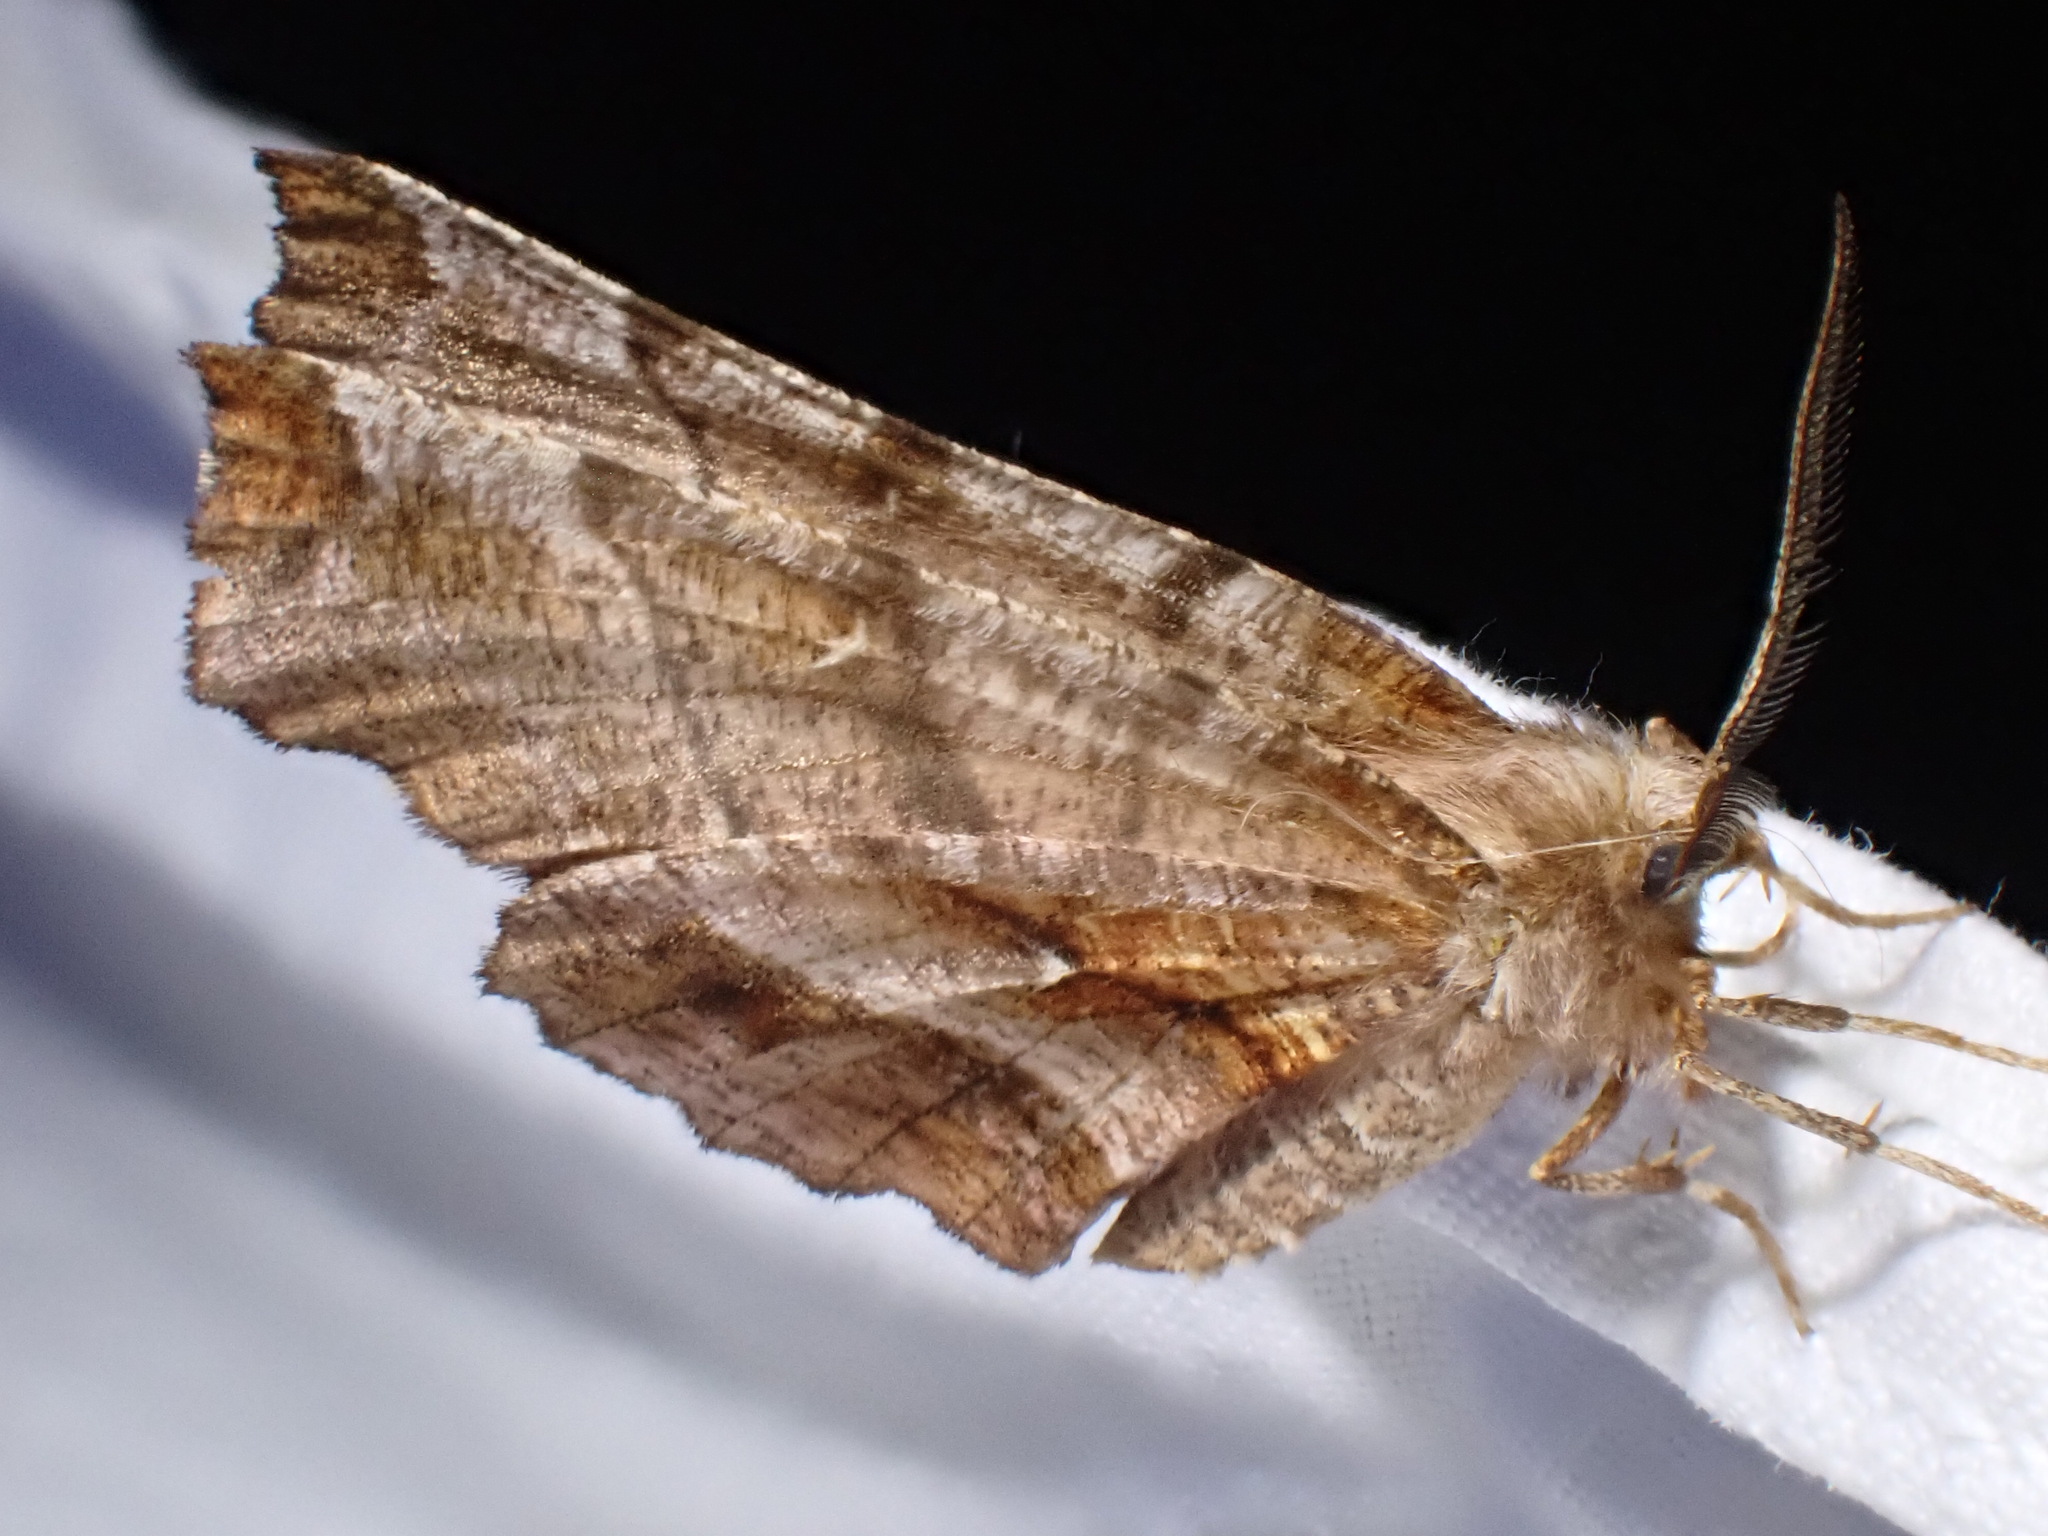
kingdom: Animalia
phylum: Arthropoda
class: Insecta
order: Lepidoptera
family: Geometridae
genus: Selenia
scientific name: Selenia dentaria
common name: Early thorn
